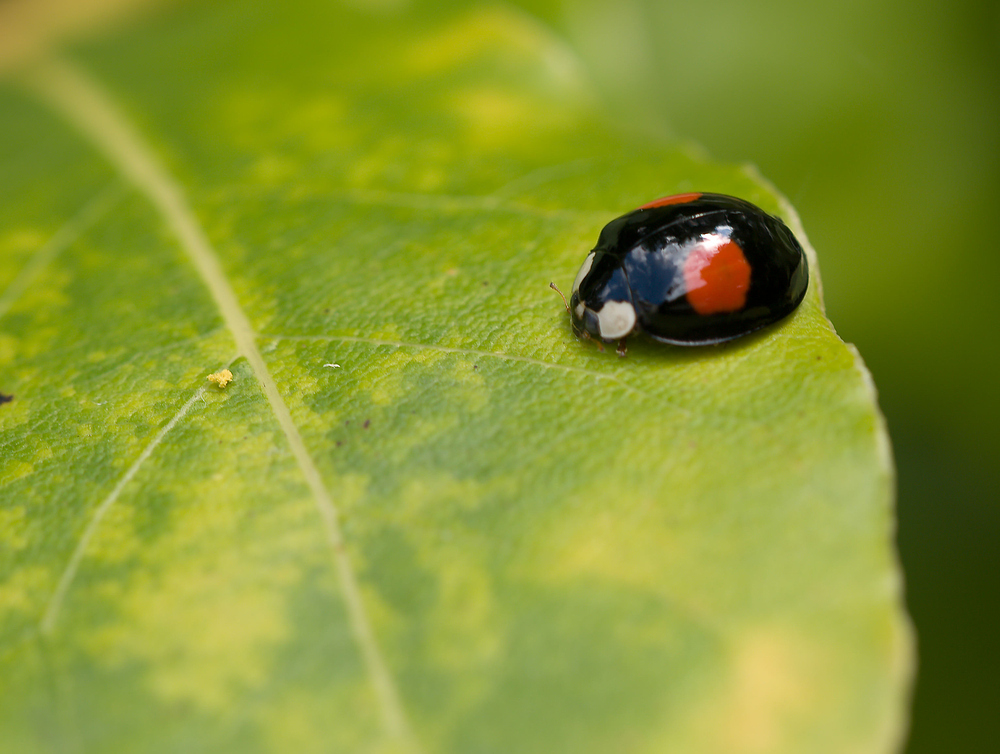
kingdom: Animalia
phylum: Arthropoda
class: Insecta
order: Coleoptera
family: Coccinellidae
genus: Harmonia
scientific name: Harmonia axyridis
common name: Harlequin ladybird
